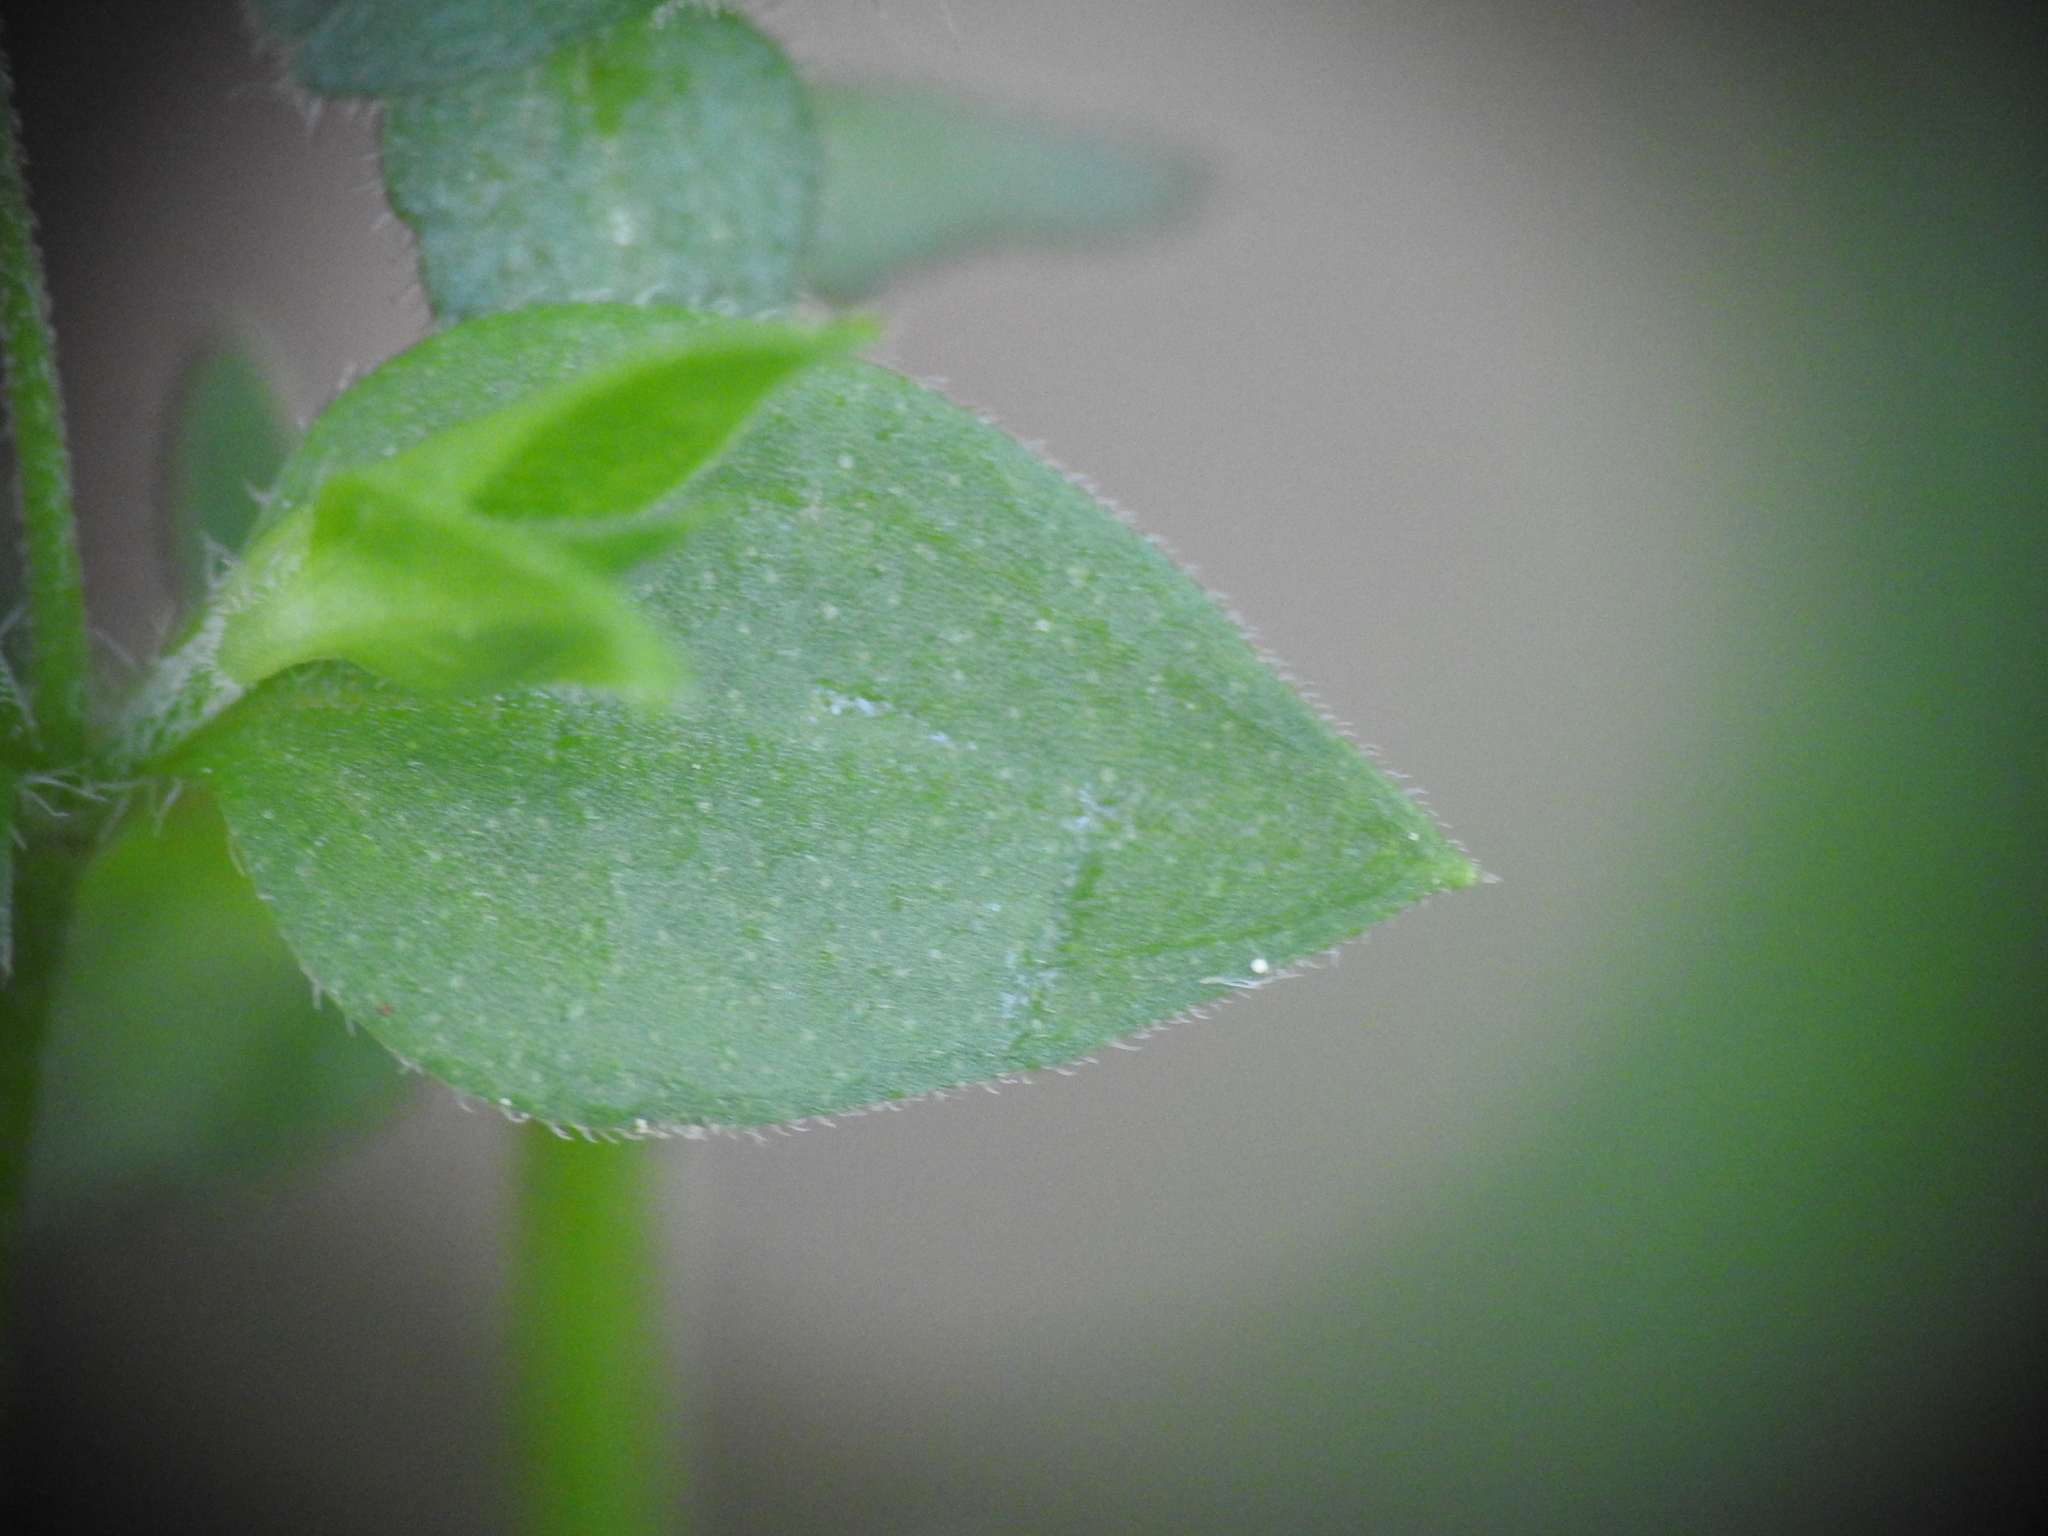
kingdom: Plantae
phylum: Tracheophyta
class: Magnoliopsida
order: Caryophyllales
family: Caryophyllaceae
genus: Moehringia
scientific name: Moehringia trinervia
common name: Three-nerved sandwort
